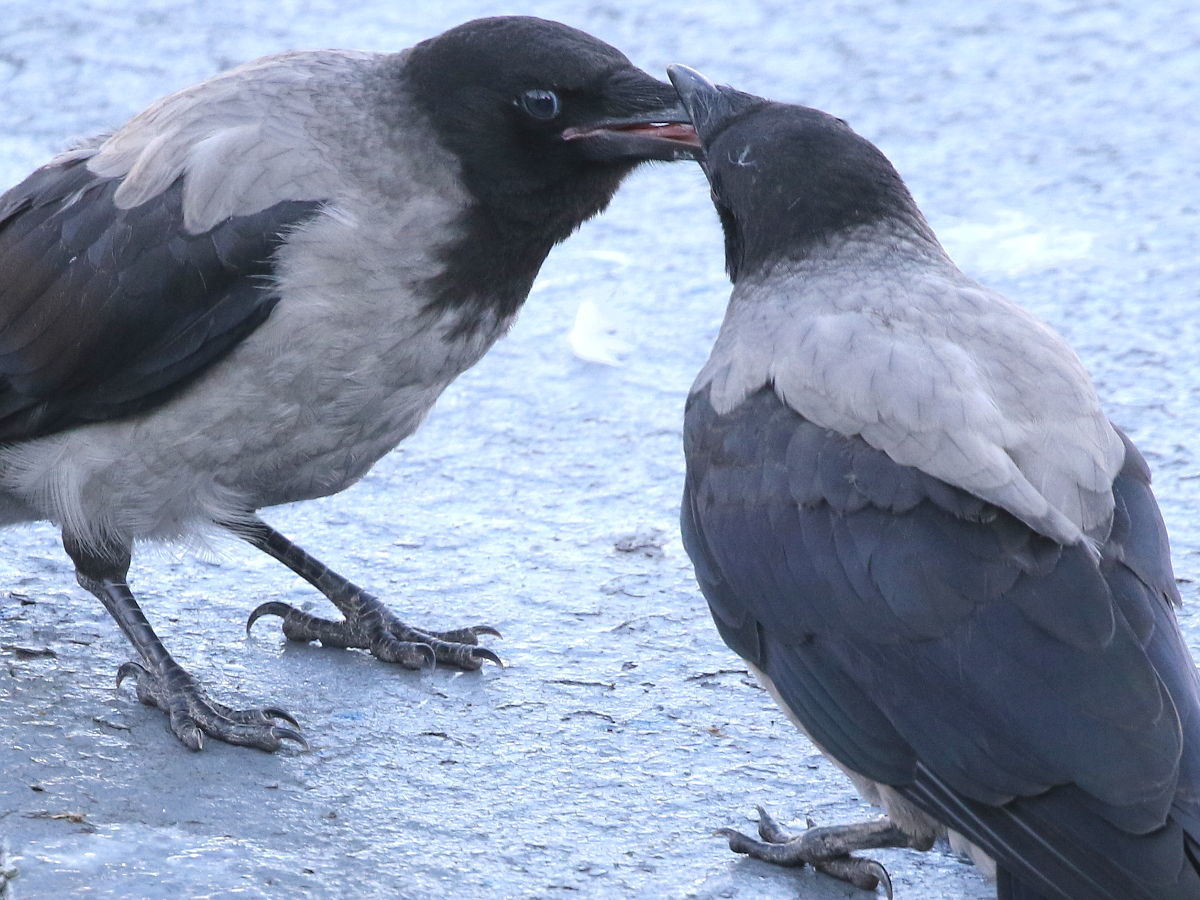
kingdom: Animalia
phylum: Chordata
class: Aves
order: Passeriformes
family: Corvidae
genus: Corvus
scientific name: Corvus cornix
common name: Hooded crow
